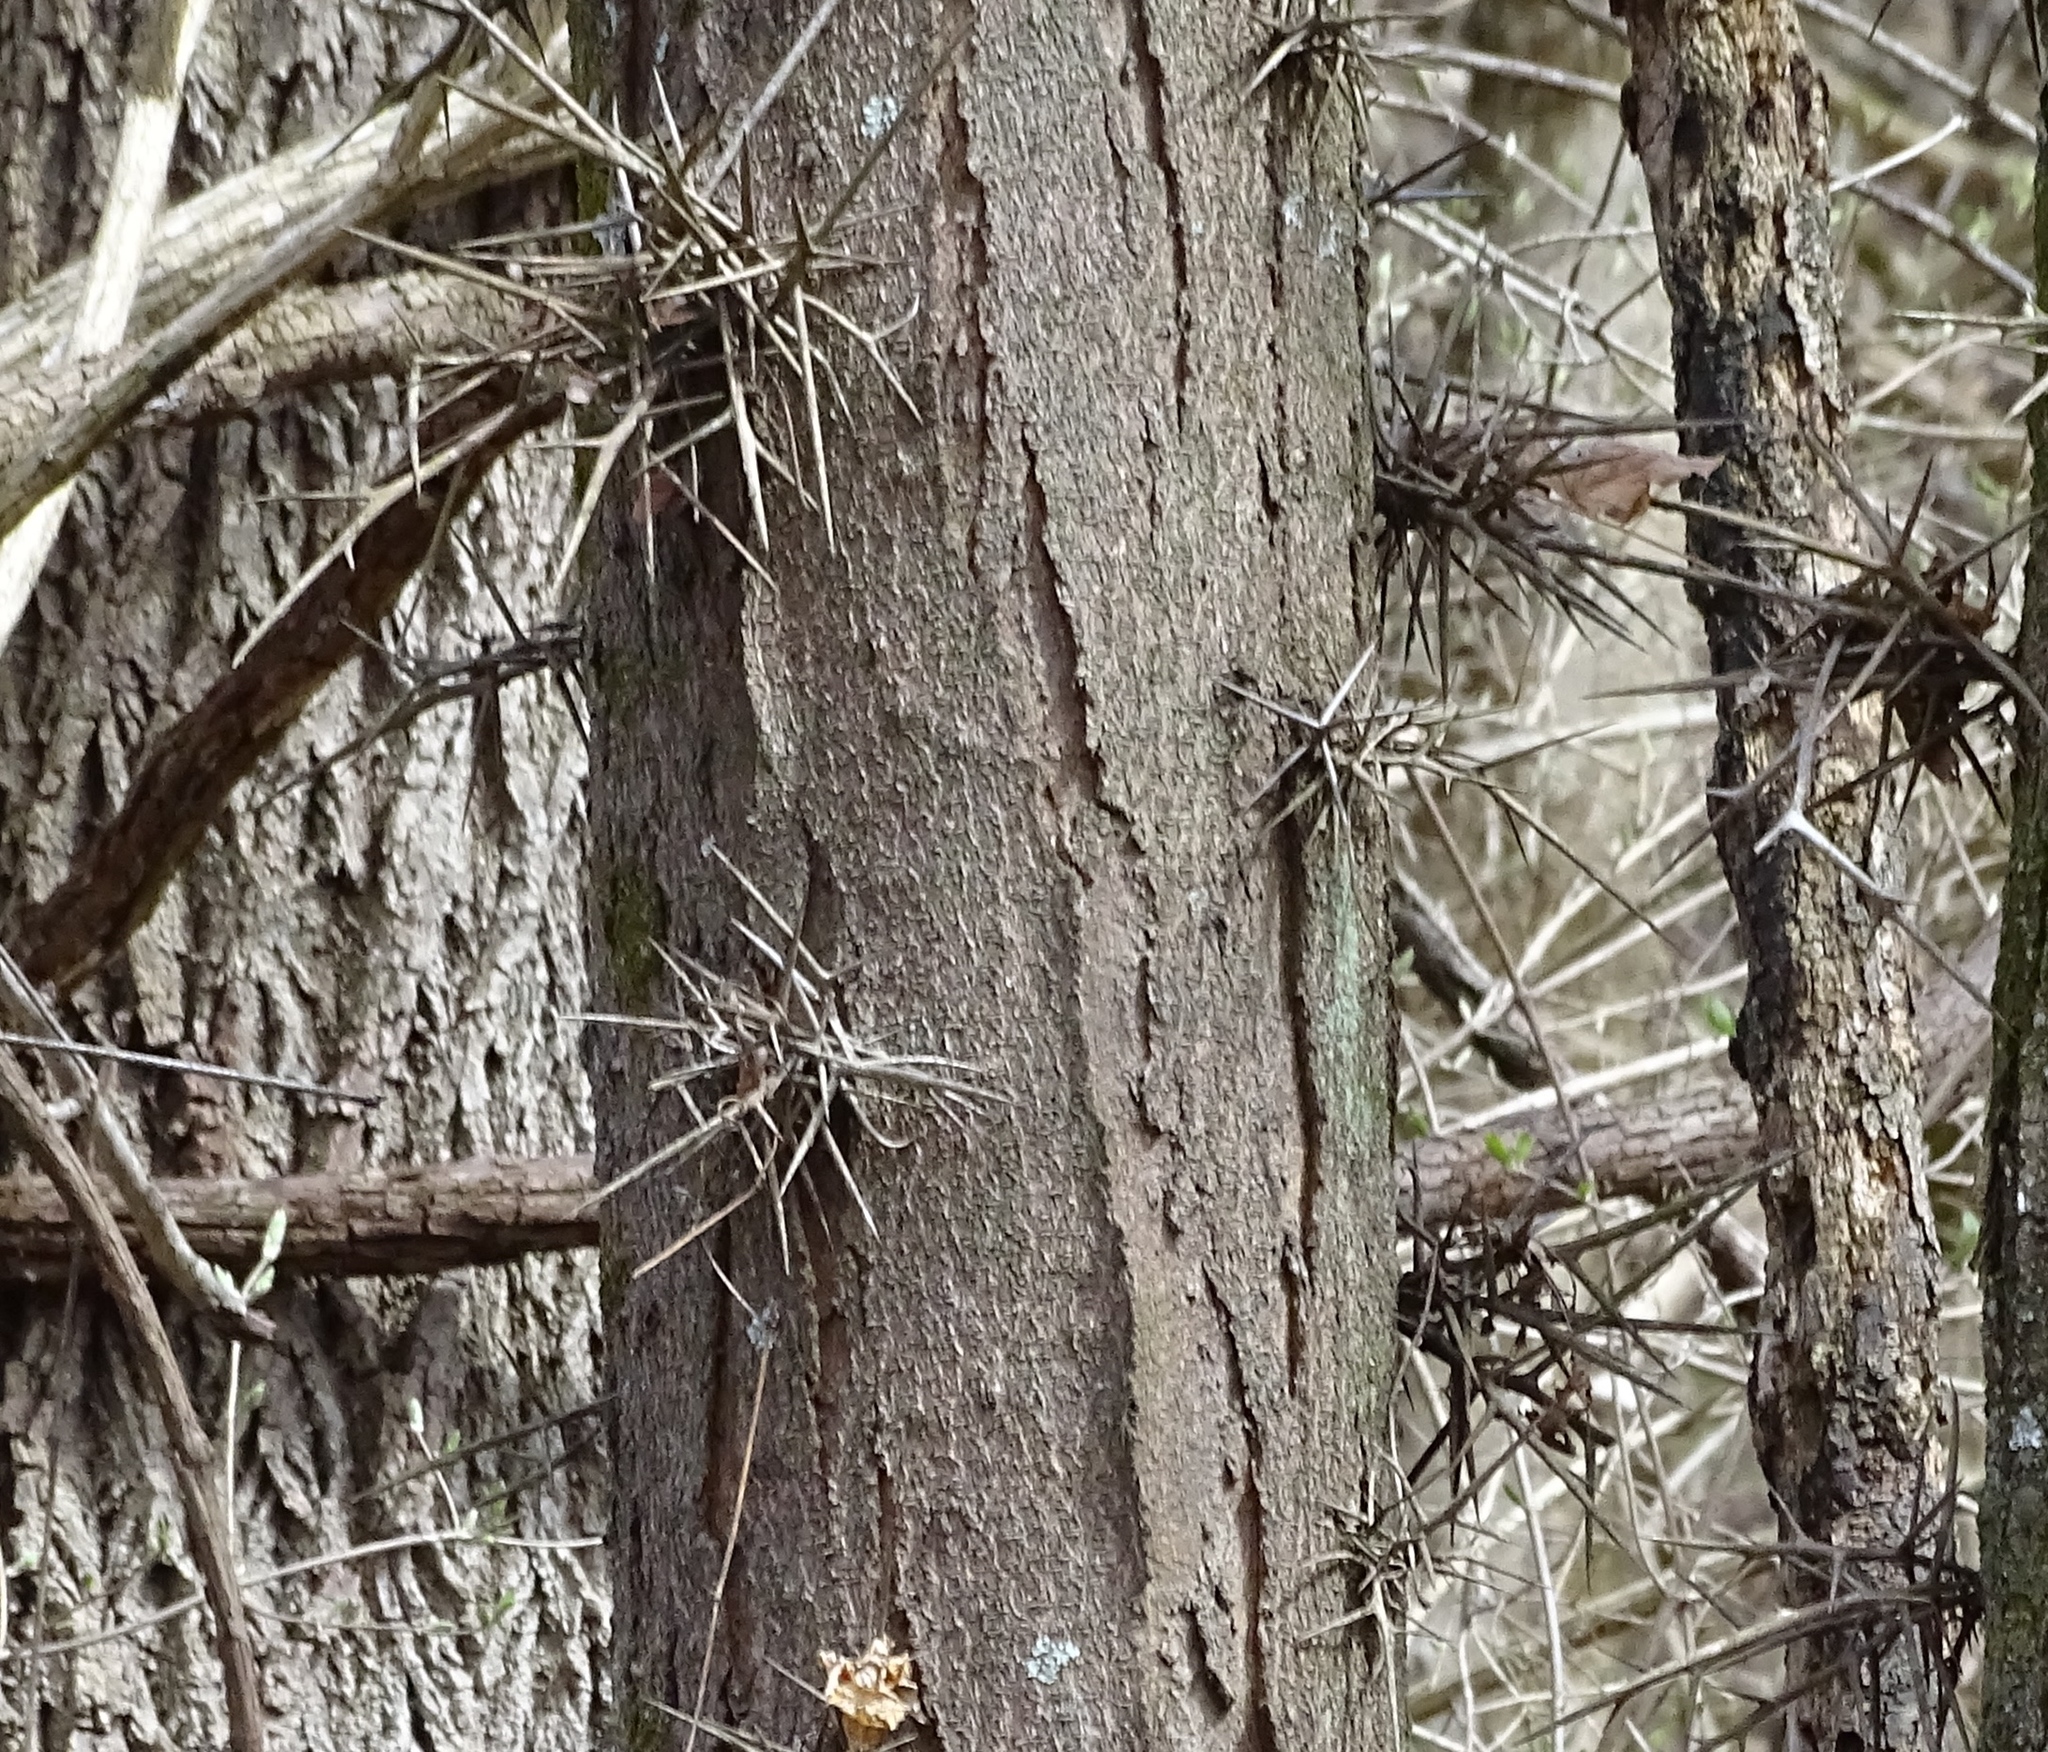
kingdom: Plantae
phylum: Tracheophyta
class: Magnoliopsida
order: Fabales
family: Fabaceae
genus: Gleditsia
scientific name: Gleditsia triacanthos
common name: Common honeylocust
